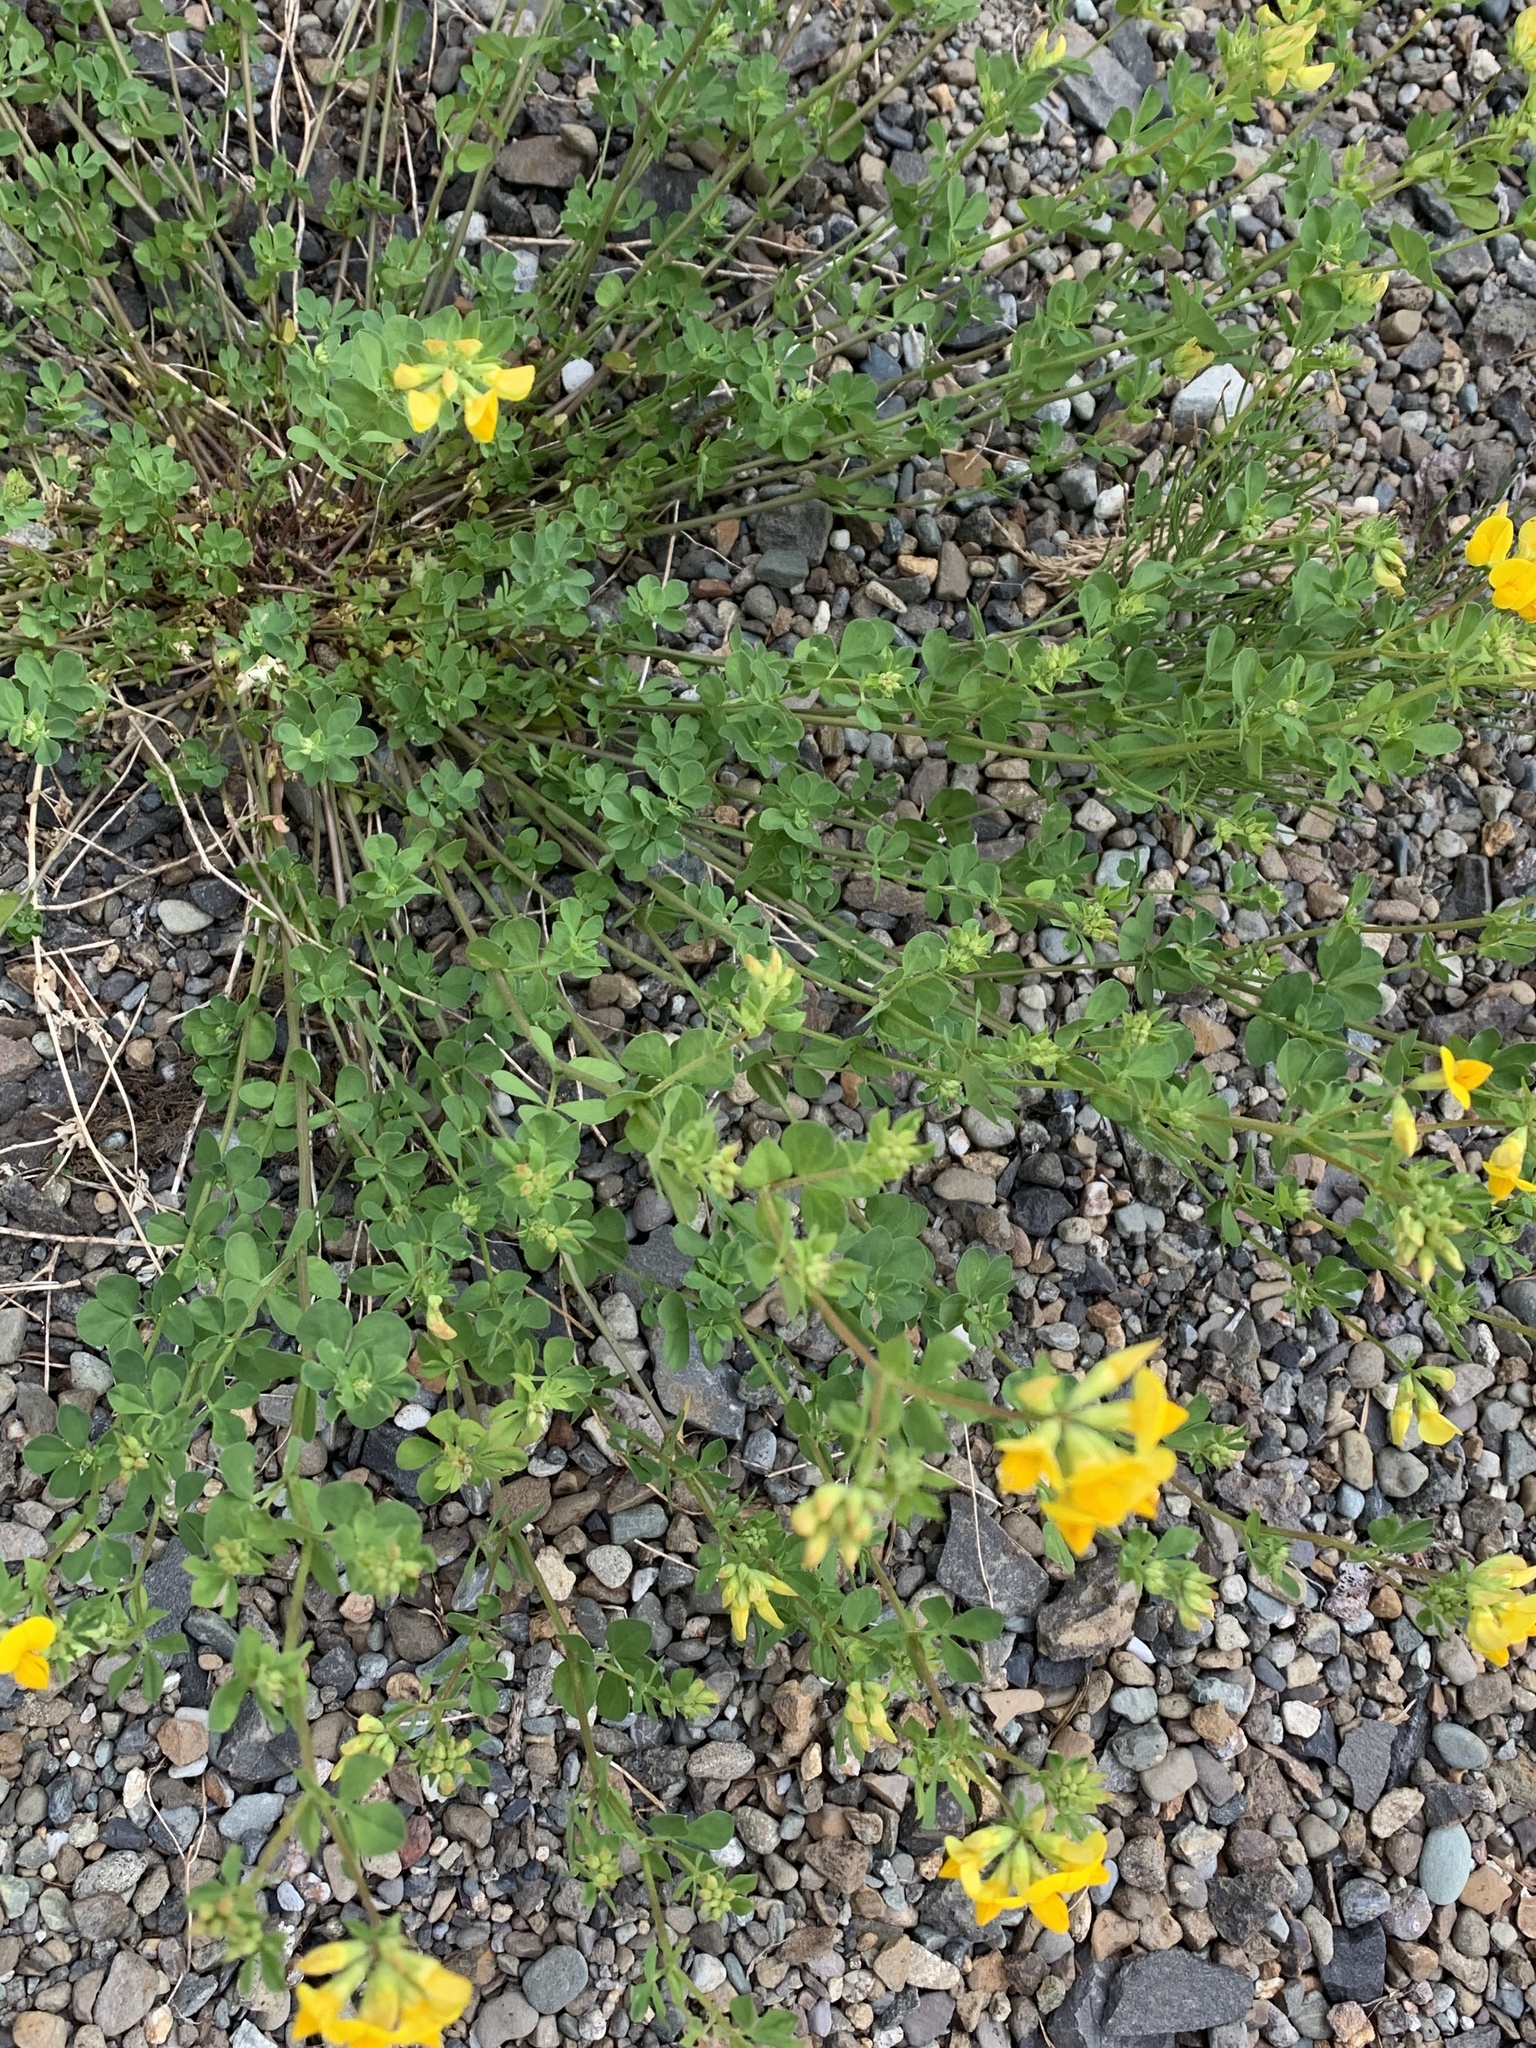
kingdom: Plantae
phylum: Tracheophyta
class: Magnoliopsida
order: Fabales
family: Fabaceae
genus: Lotus
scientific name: Lotus corniculatus
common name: Common bird's-foot-trefoil
